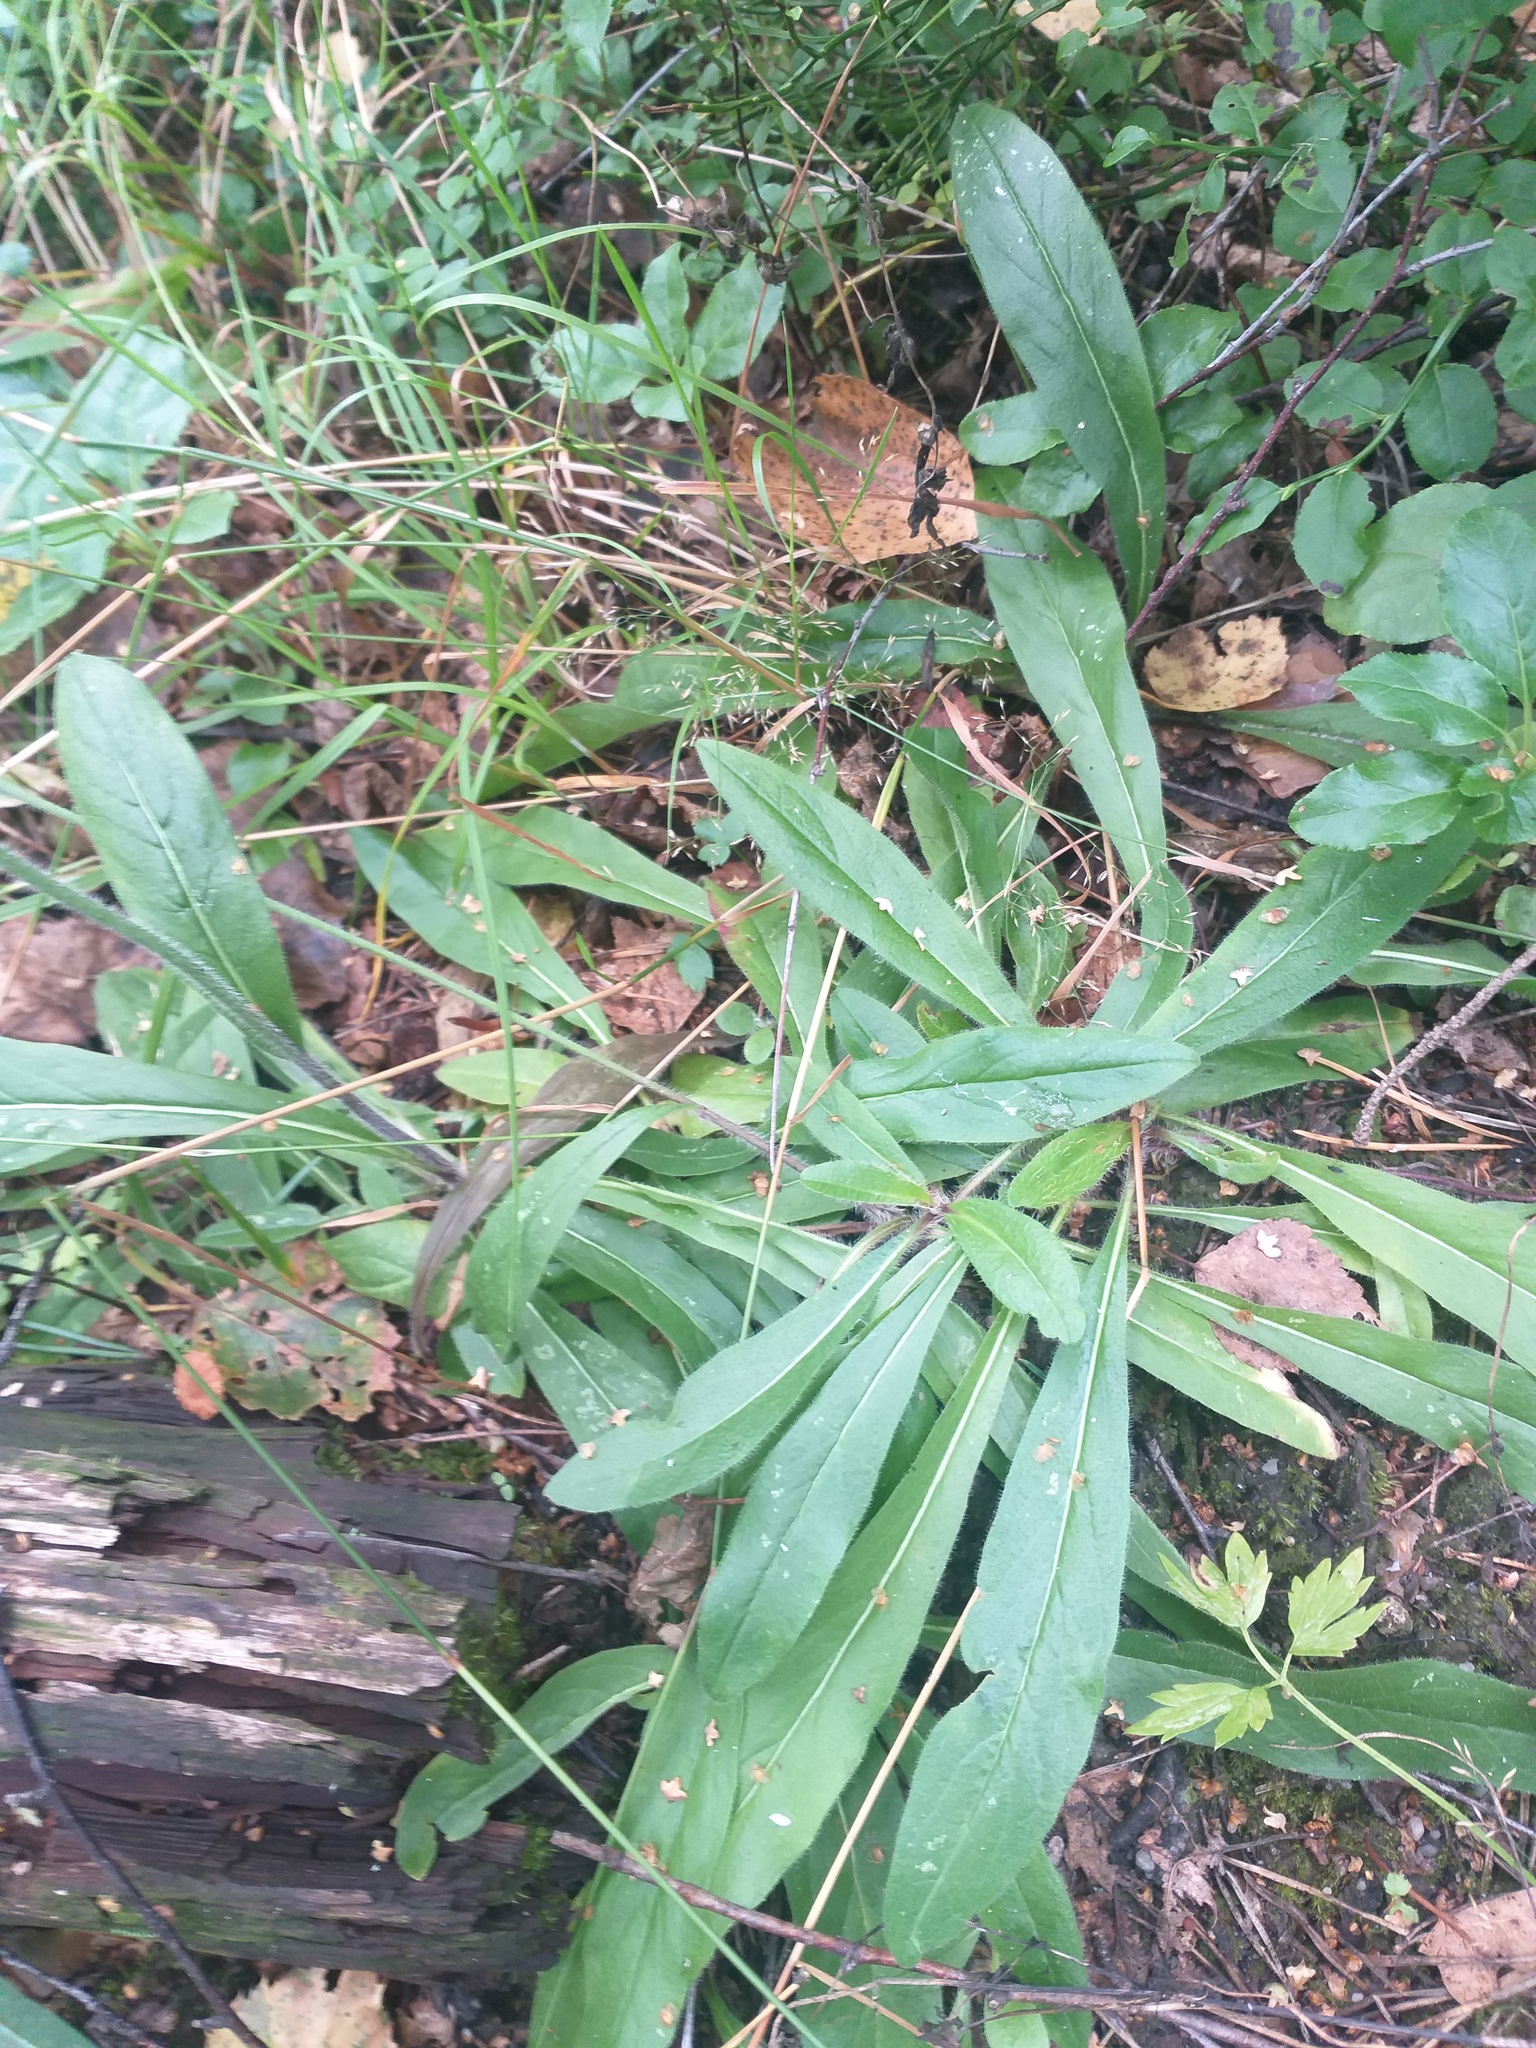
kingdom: Plantae
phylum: Tracheophyta
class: Magnoliopsida
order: Asterales
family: Asteraceae
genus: Pilosella
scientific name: Pilosella onegensis
